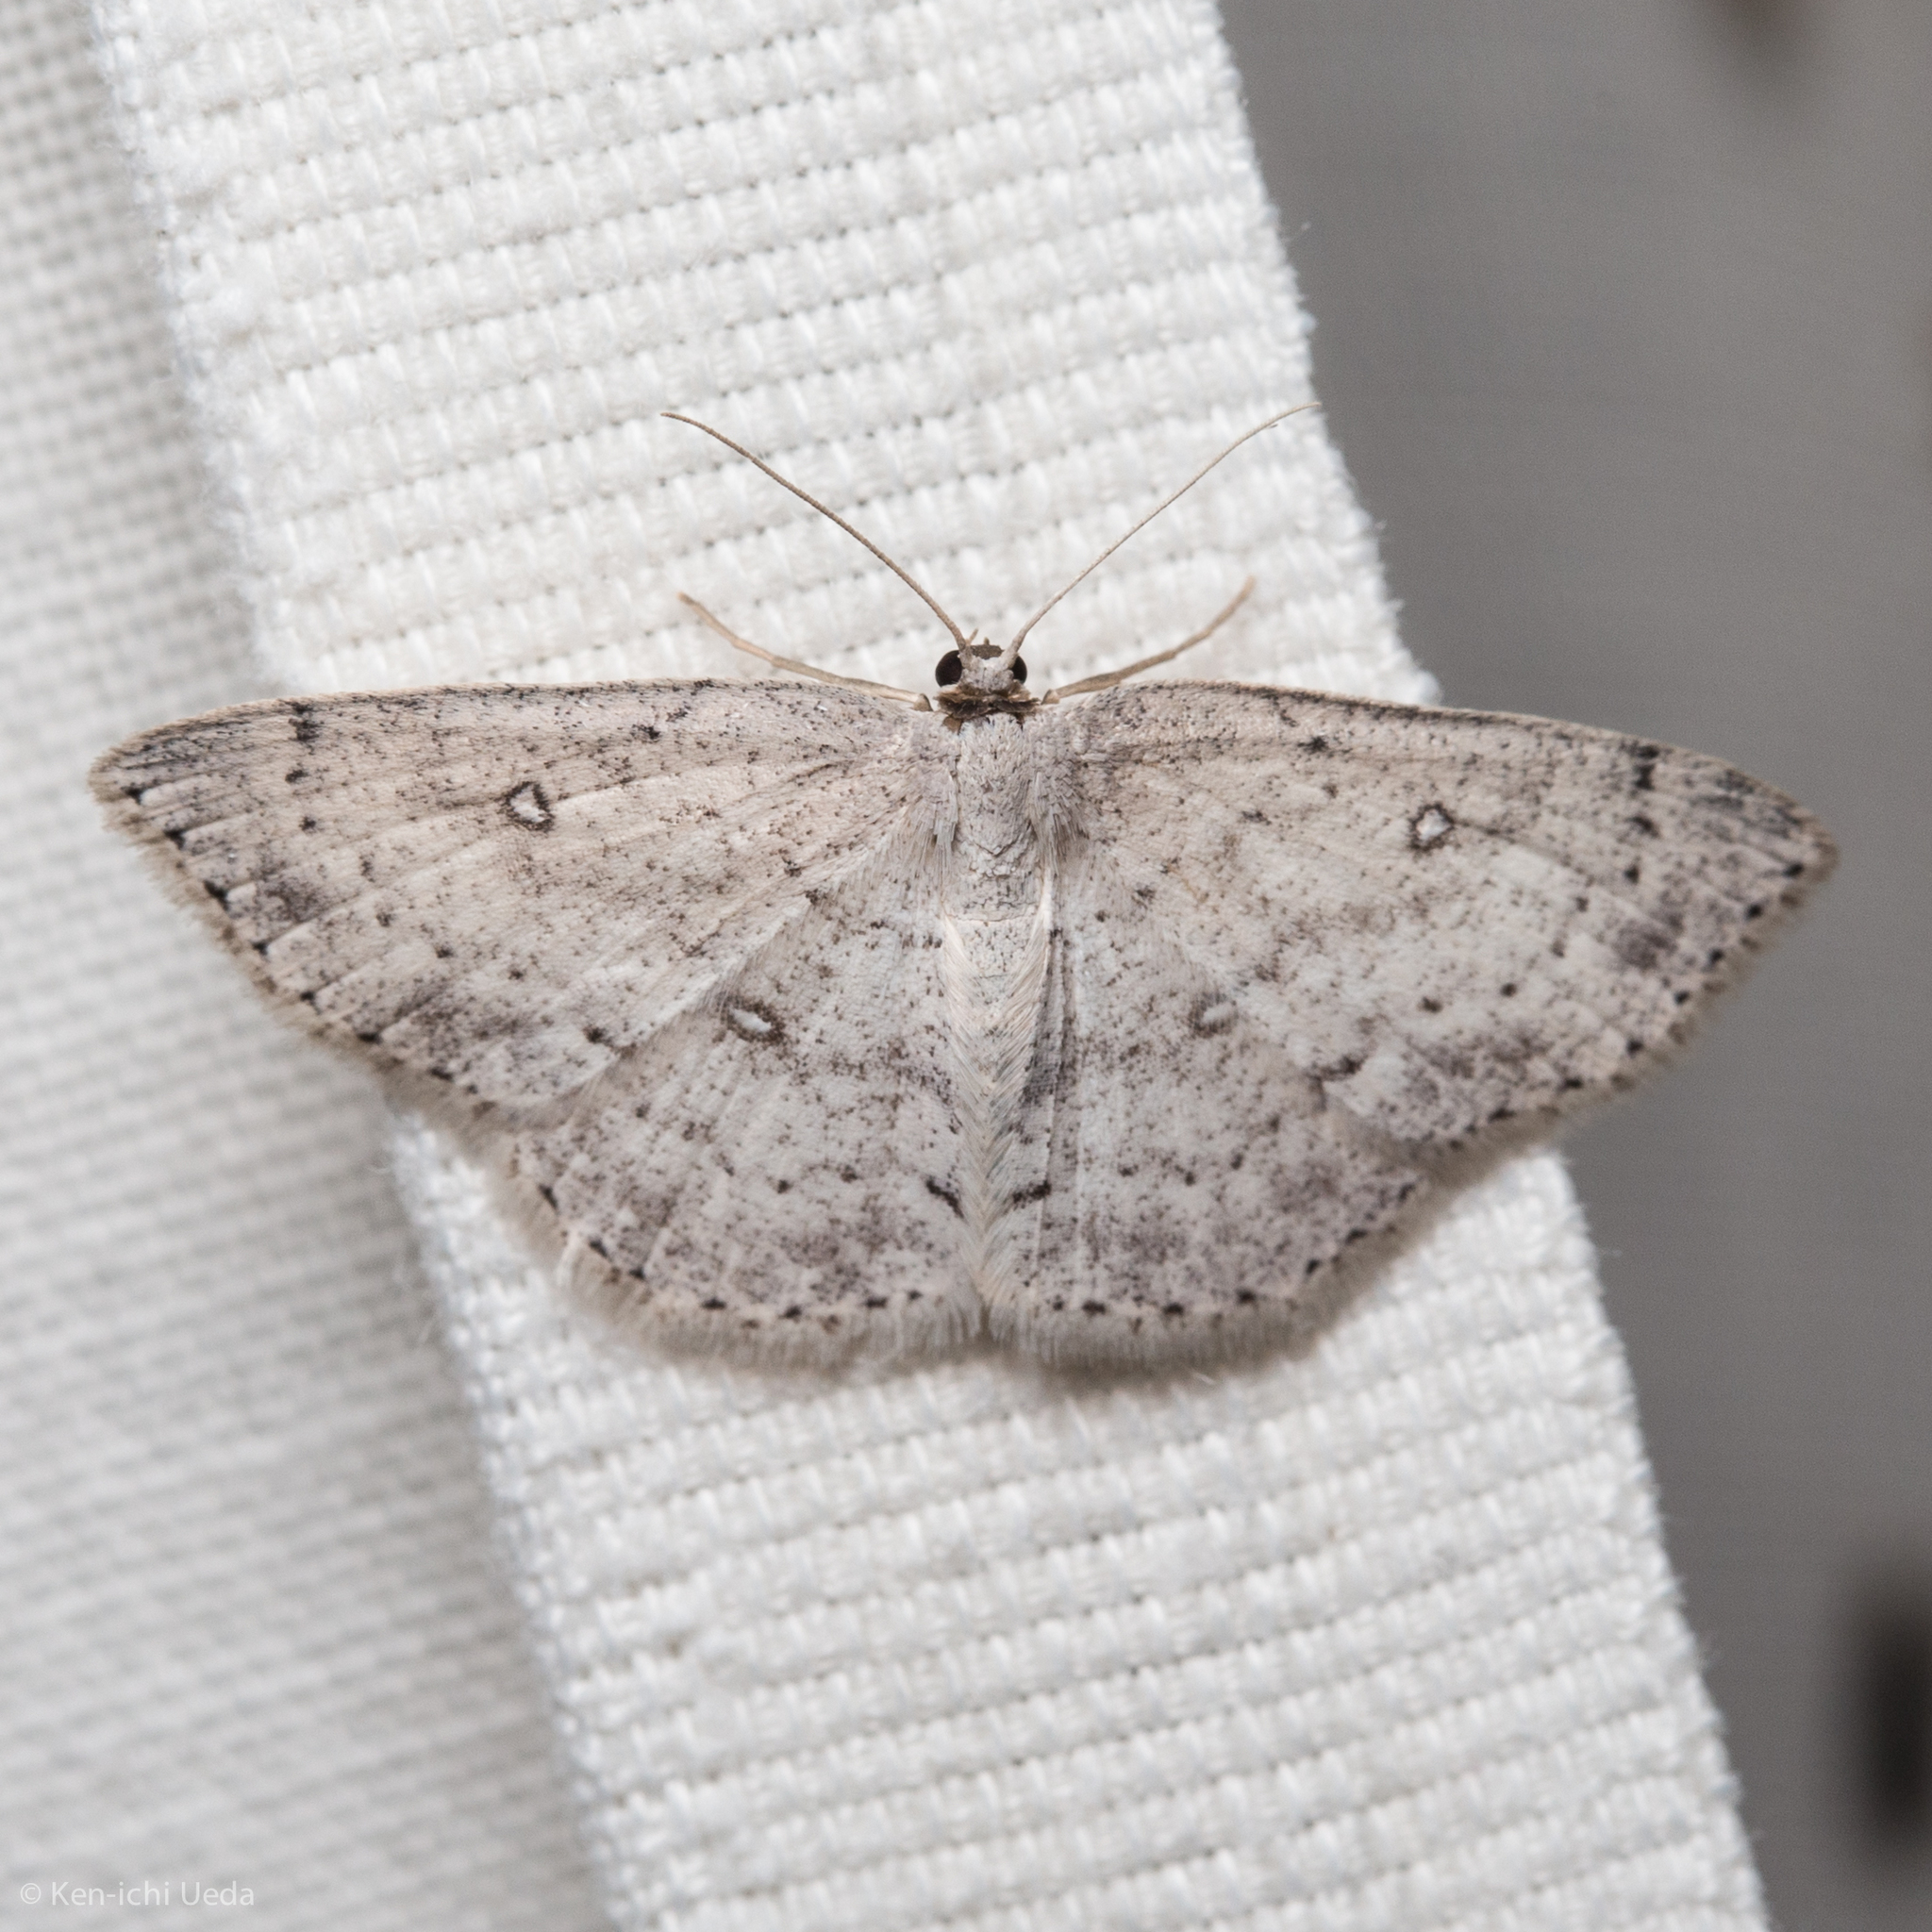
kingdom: Animalia
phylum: Arthropoda
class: Insecta
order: Lepidoptera
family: Geometridae
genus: Cyclophora
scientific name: Cyclophora pendulinaria
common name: Sweet fern geometer
